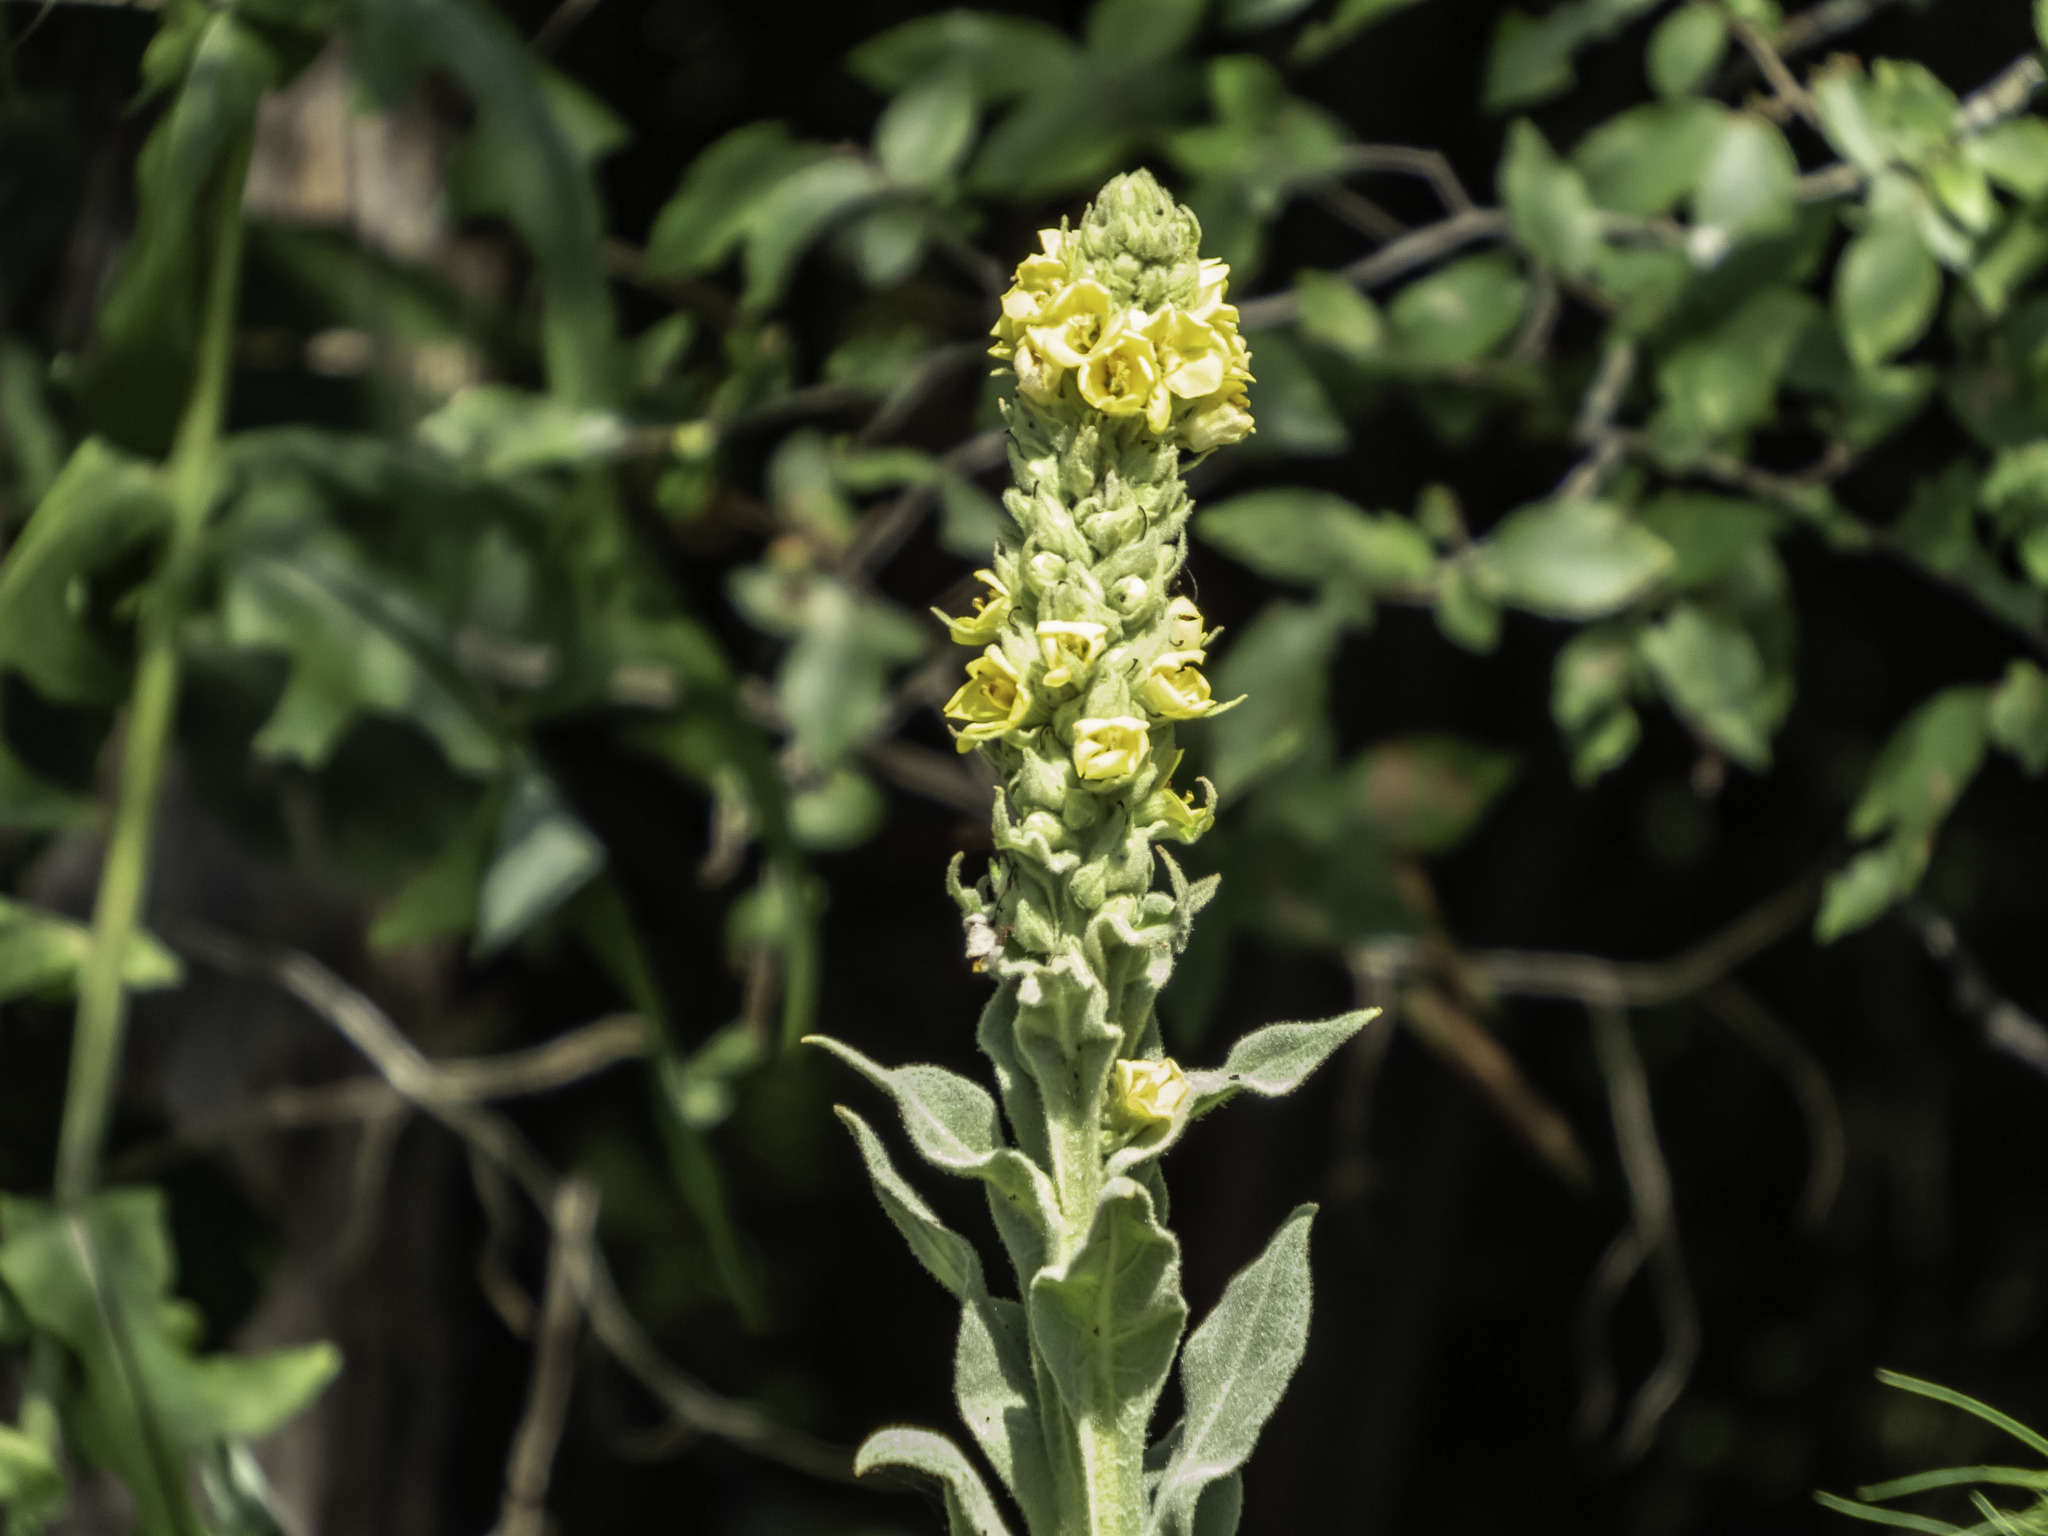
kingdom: Plantae
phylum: Tracheophyta
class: Magnoliopsida
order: Lamiales
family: Scrophulariaceae
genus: Verbascum
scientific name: Verbascum thapsus
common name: Common mullein
